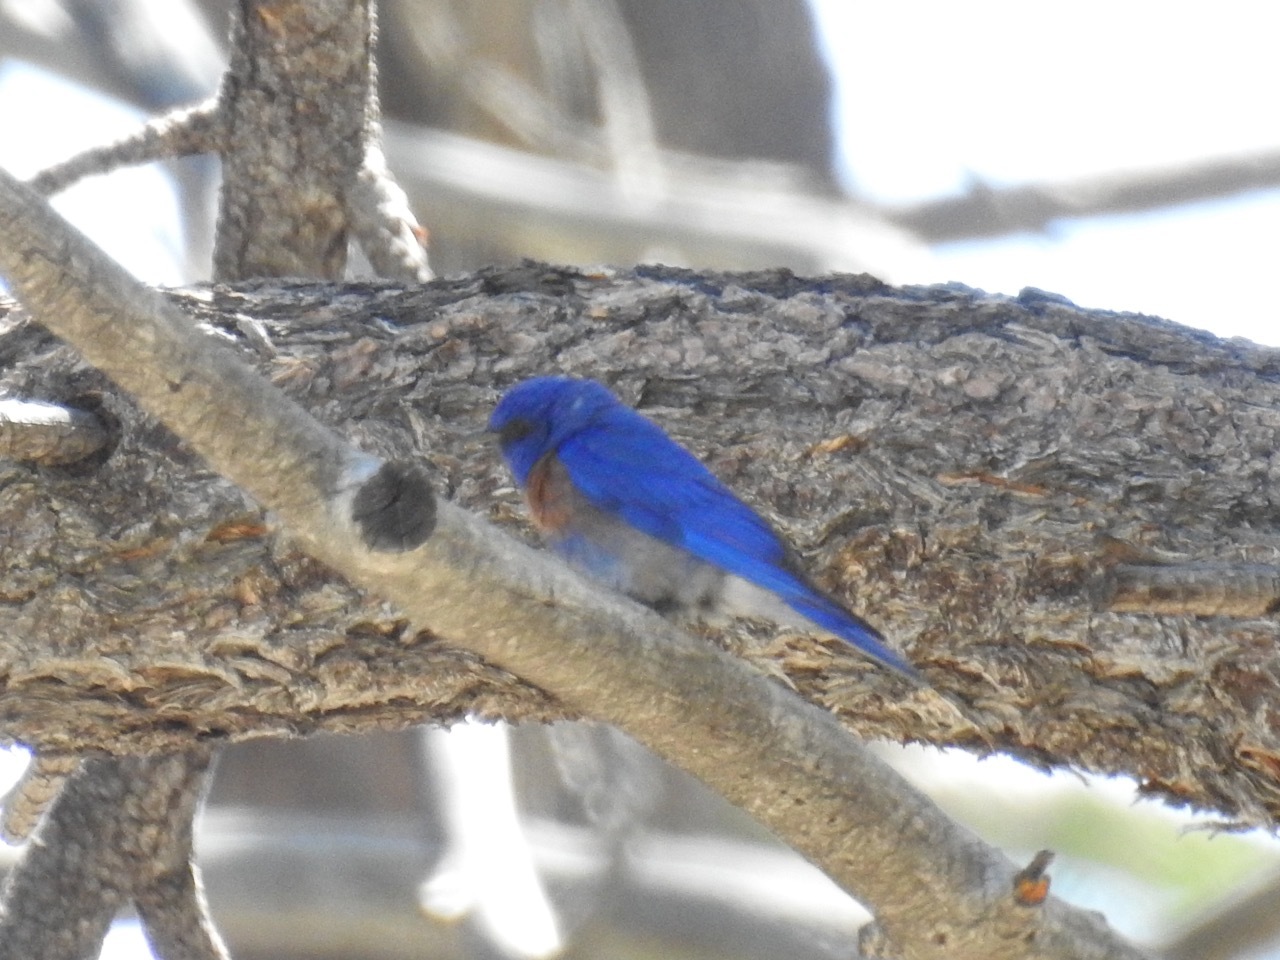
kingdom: Animalia
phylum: Chordata
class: Aves
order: Passeriformes
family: Turdidae
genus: Sialia
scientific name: Sialia mexicana
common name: Western bluebird
